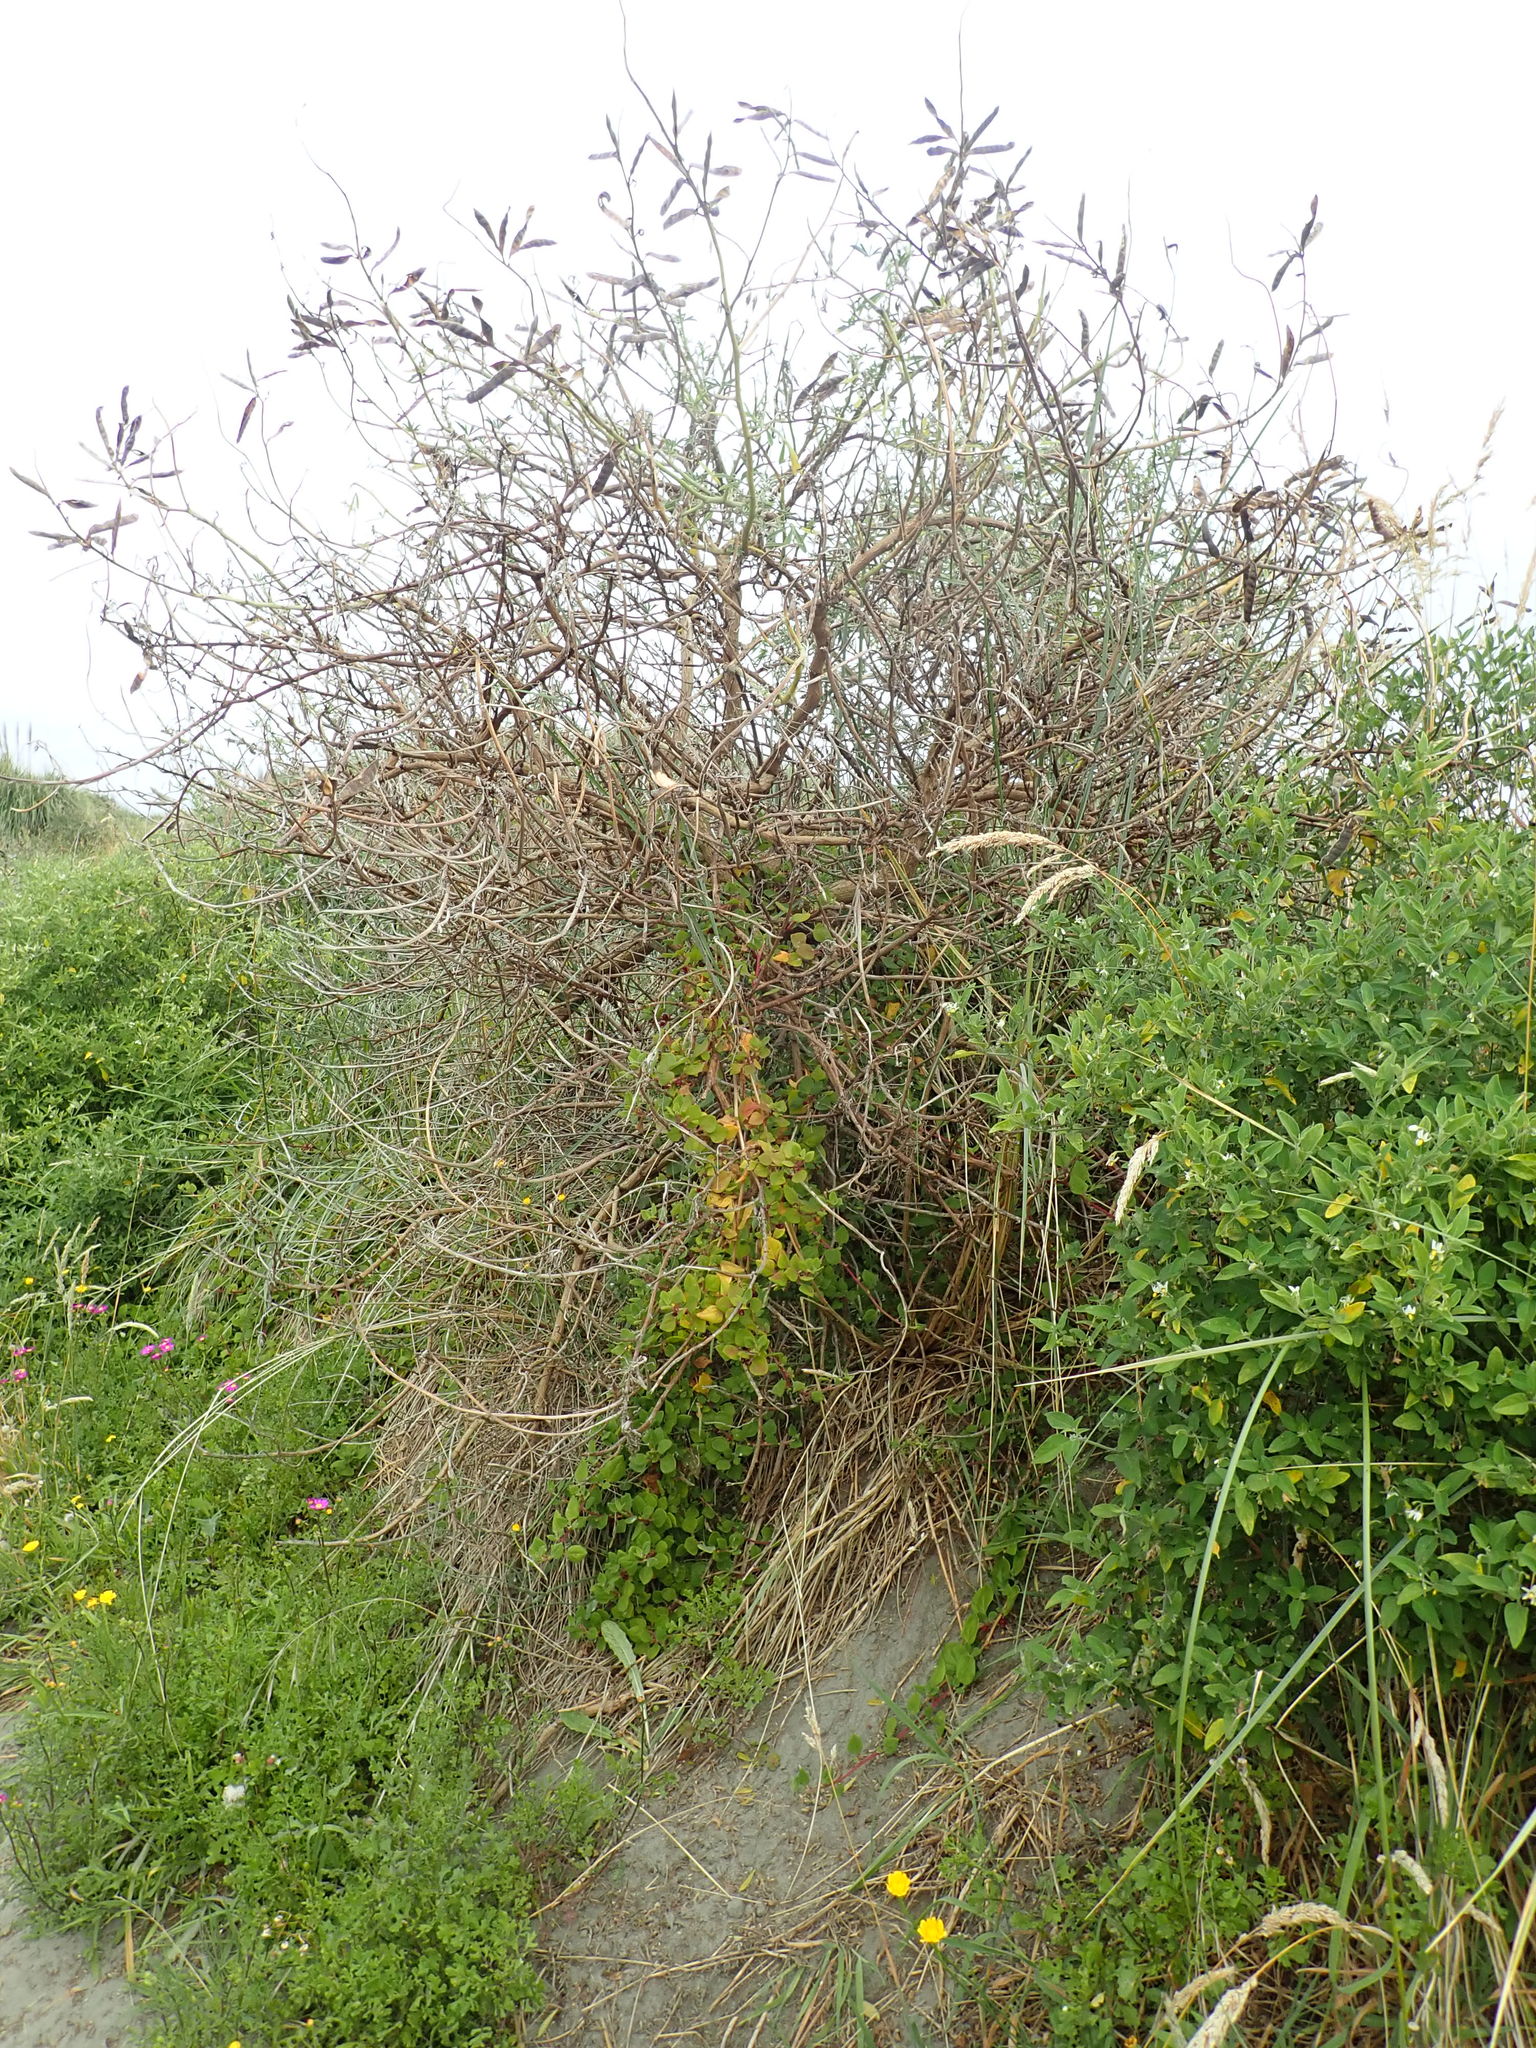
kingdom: Plantae
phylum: Tracheophyta
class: Magnoliopsida
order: Caryophyllales
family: Aizoaceae
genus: Tetragonia
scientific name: Tetragonia implexicoma
